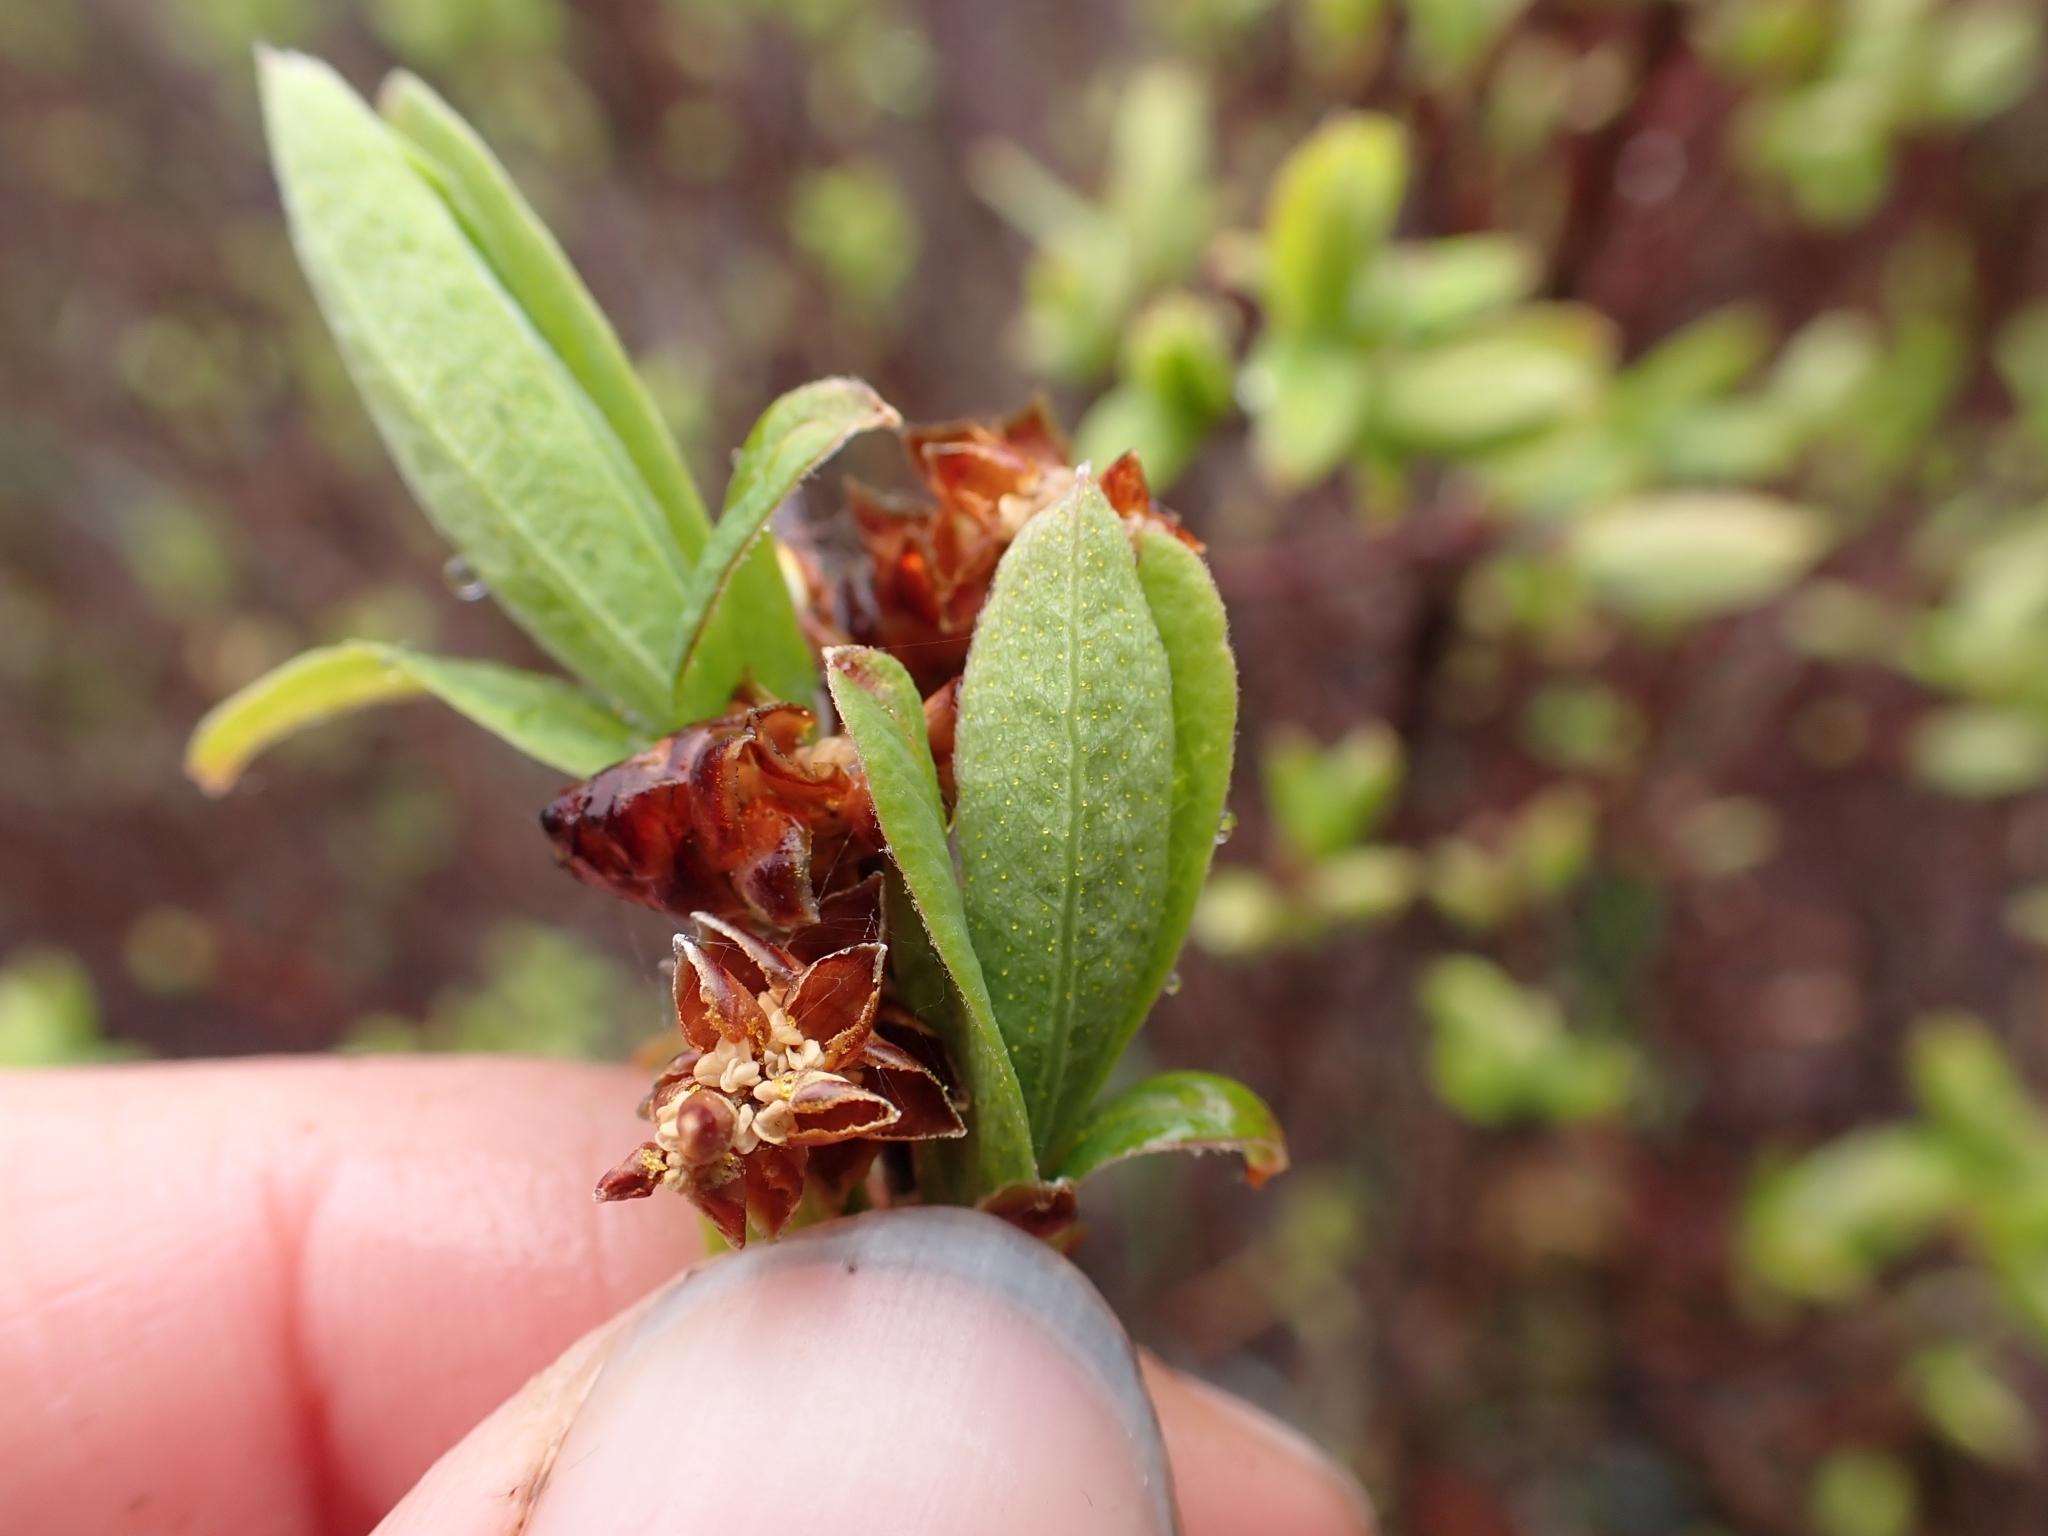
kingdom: Plantae
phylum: Tracheophyta
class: Magnoliopsida
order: Fagales
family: Myricaceae
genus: Myrica
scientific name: Myrica gale
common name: Sweet gale
